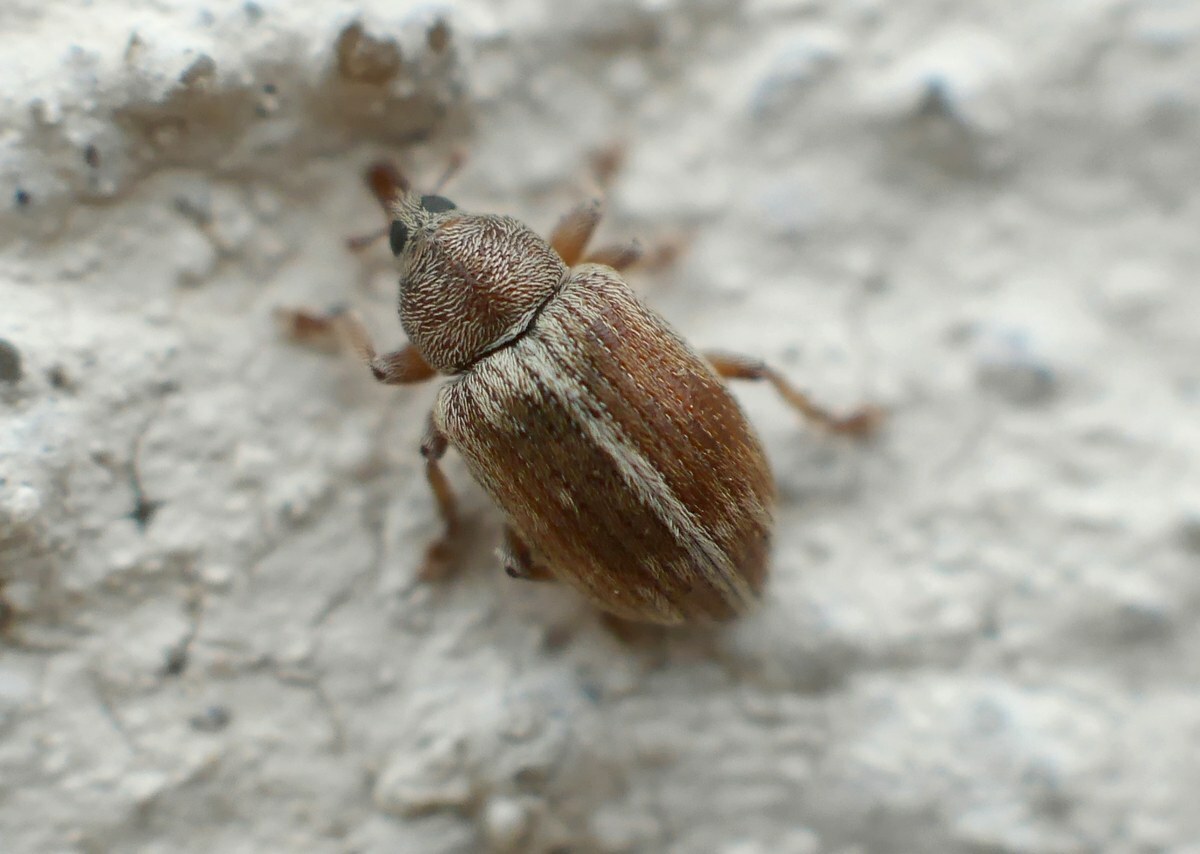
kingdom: Animalia
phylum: Arthropoda
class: Insecta
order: Coleoptera
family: Curculionidae
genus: Ellescus
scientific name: Ellescus scanicus
